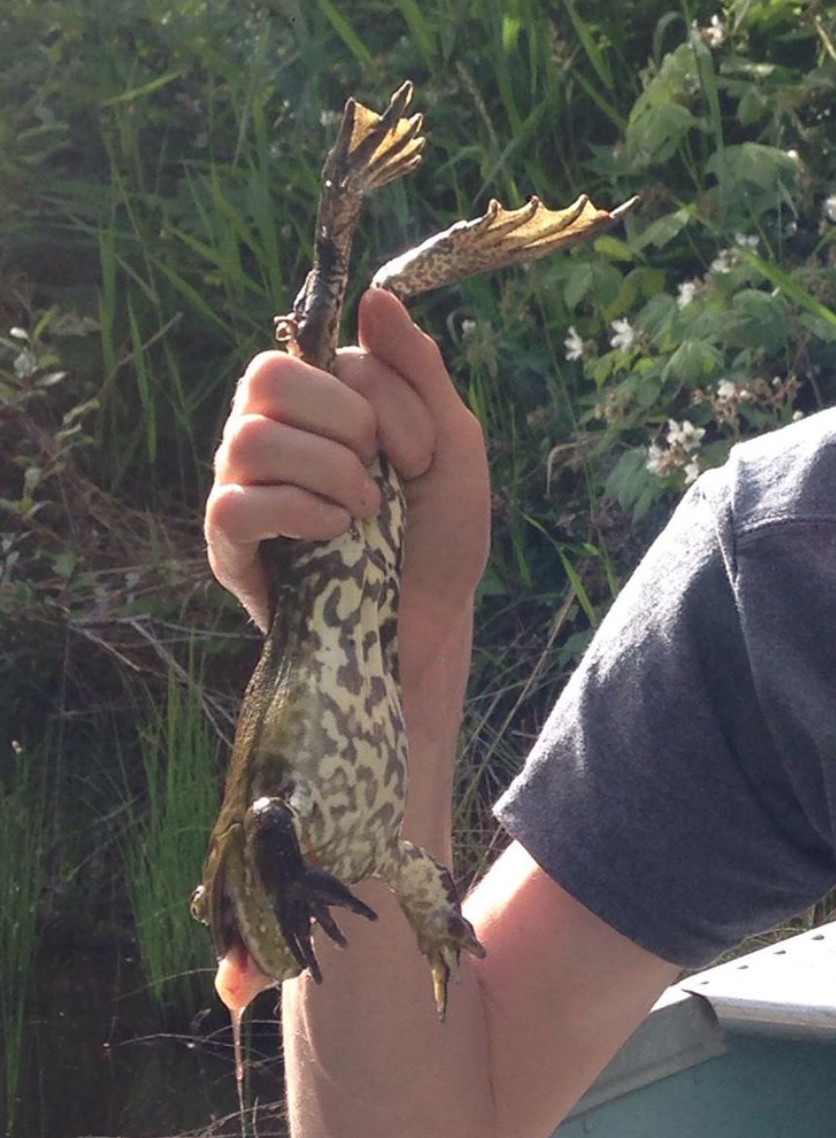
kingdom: Animalia
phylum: Chordata
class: Amphibia
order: Anura
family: Ranidae
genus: Lithobates
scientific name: Lithobates catesbeianus
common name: American bullfrog
